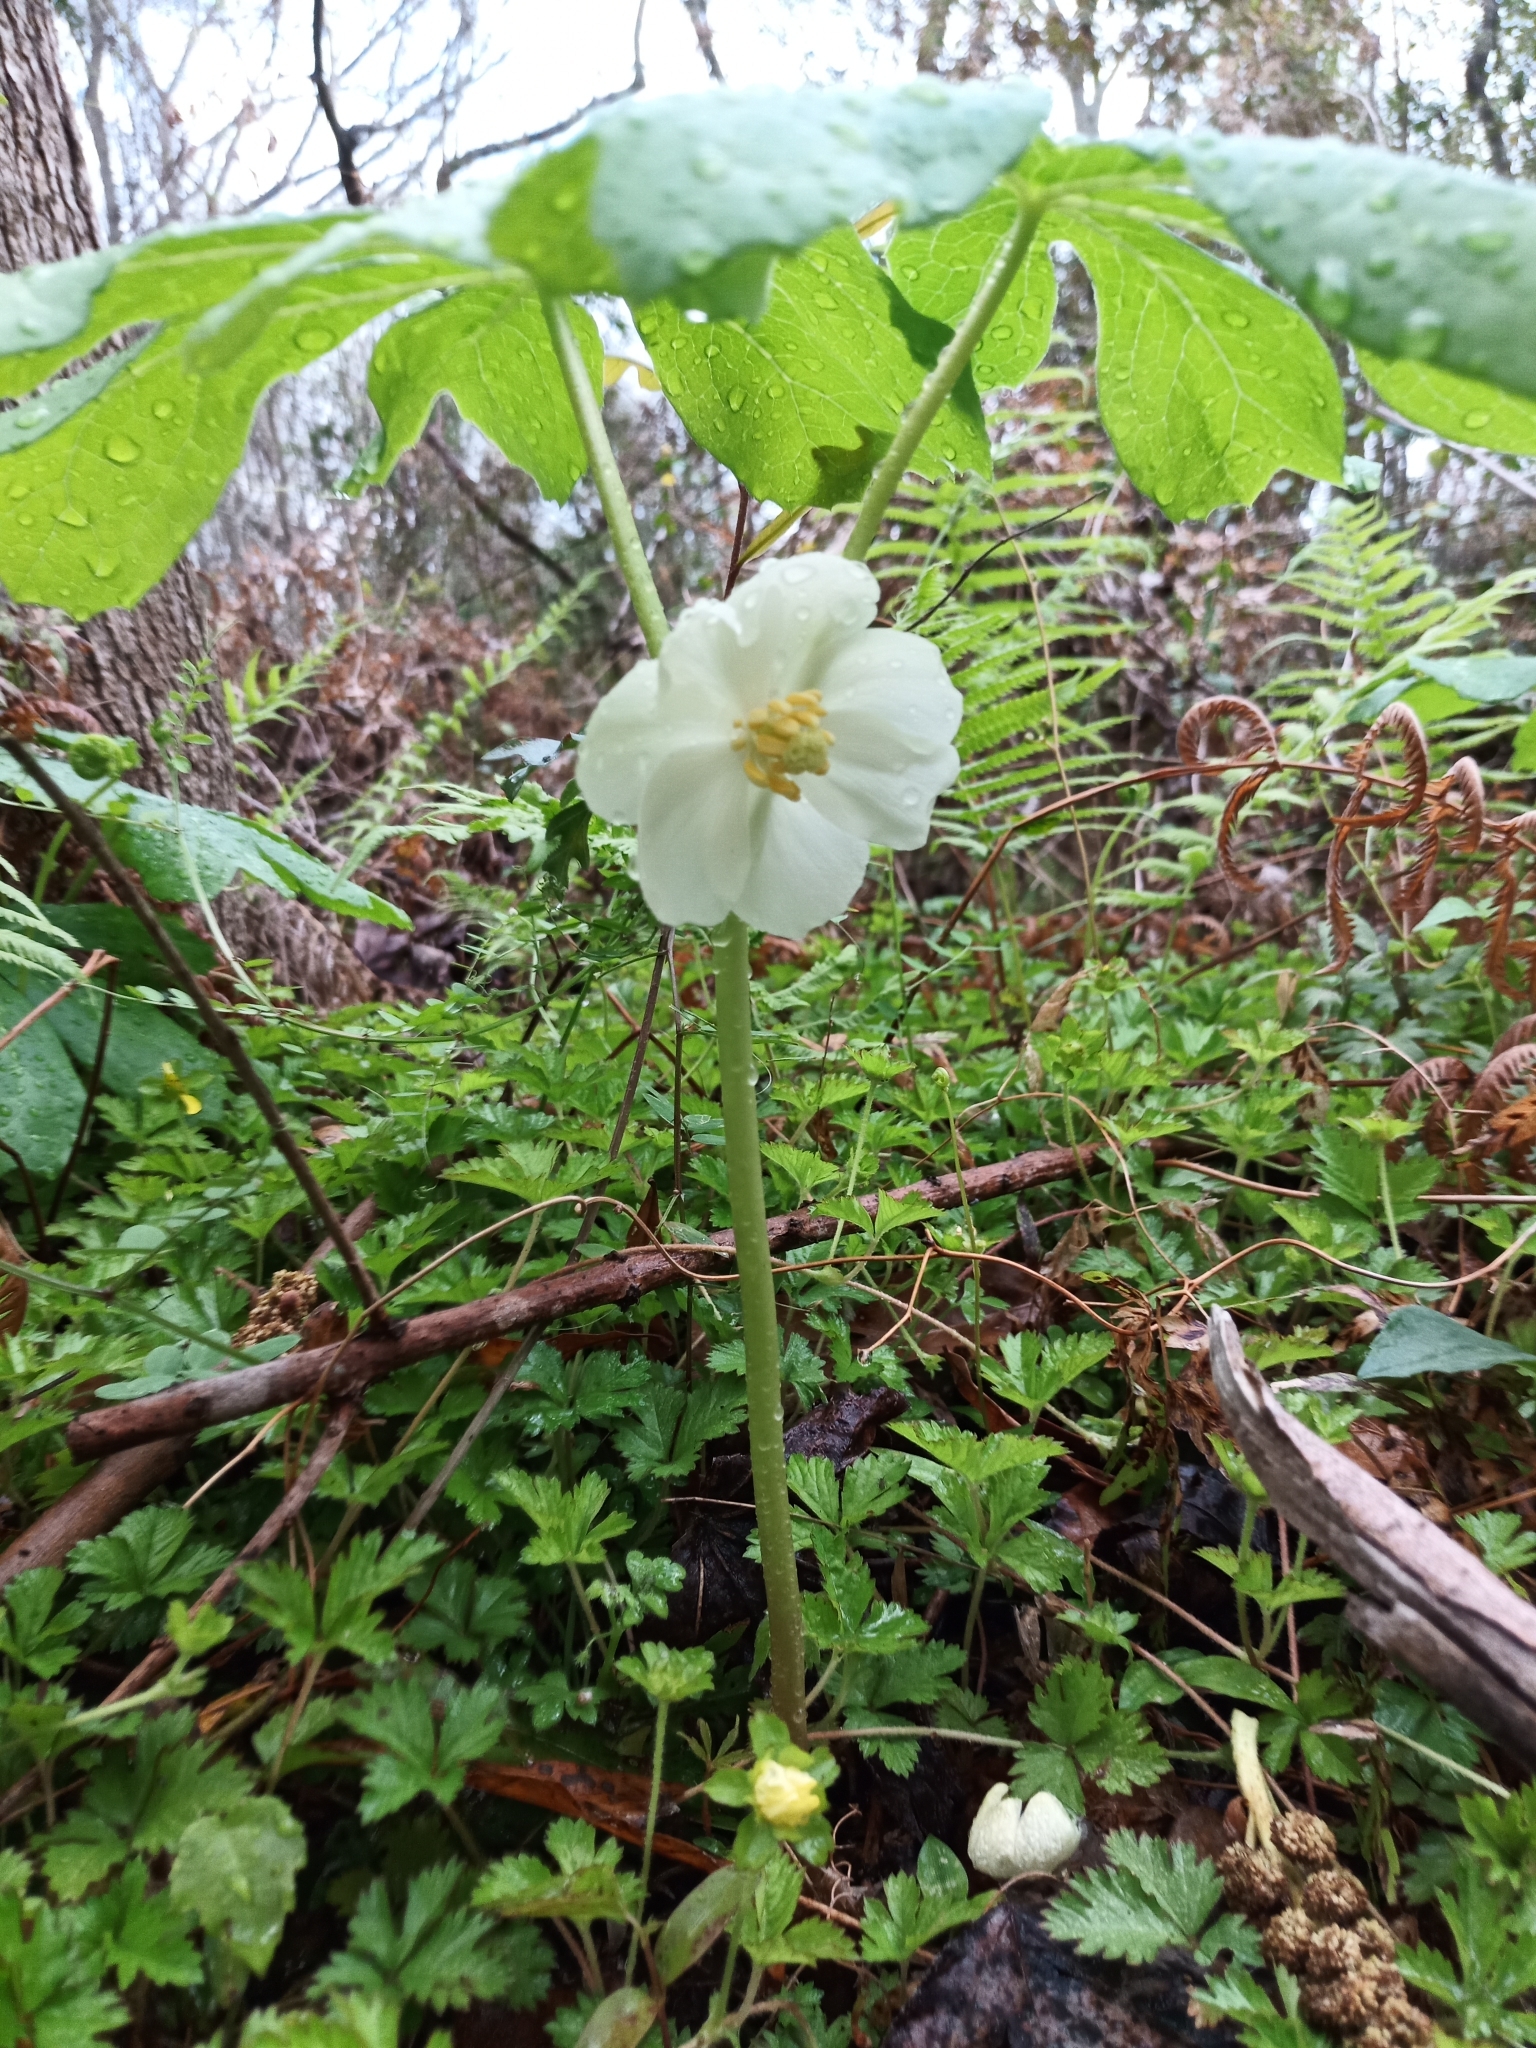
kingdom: Plantae
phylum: Tracheophyta
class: Magnoliopsida
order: Ranunculales
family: Berberidaceae
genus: Podophyllum
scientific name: Podophyllum peltatum
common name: Wild mandrake
